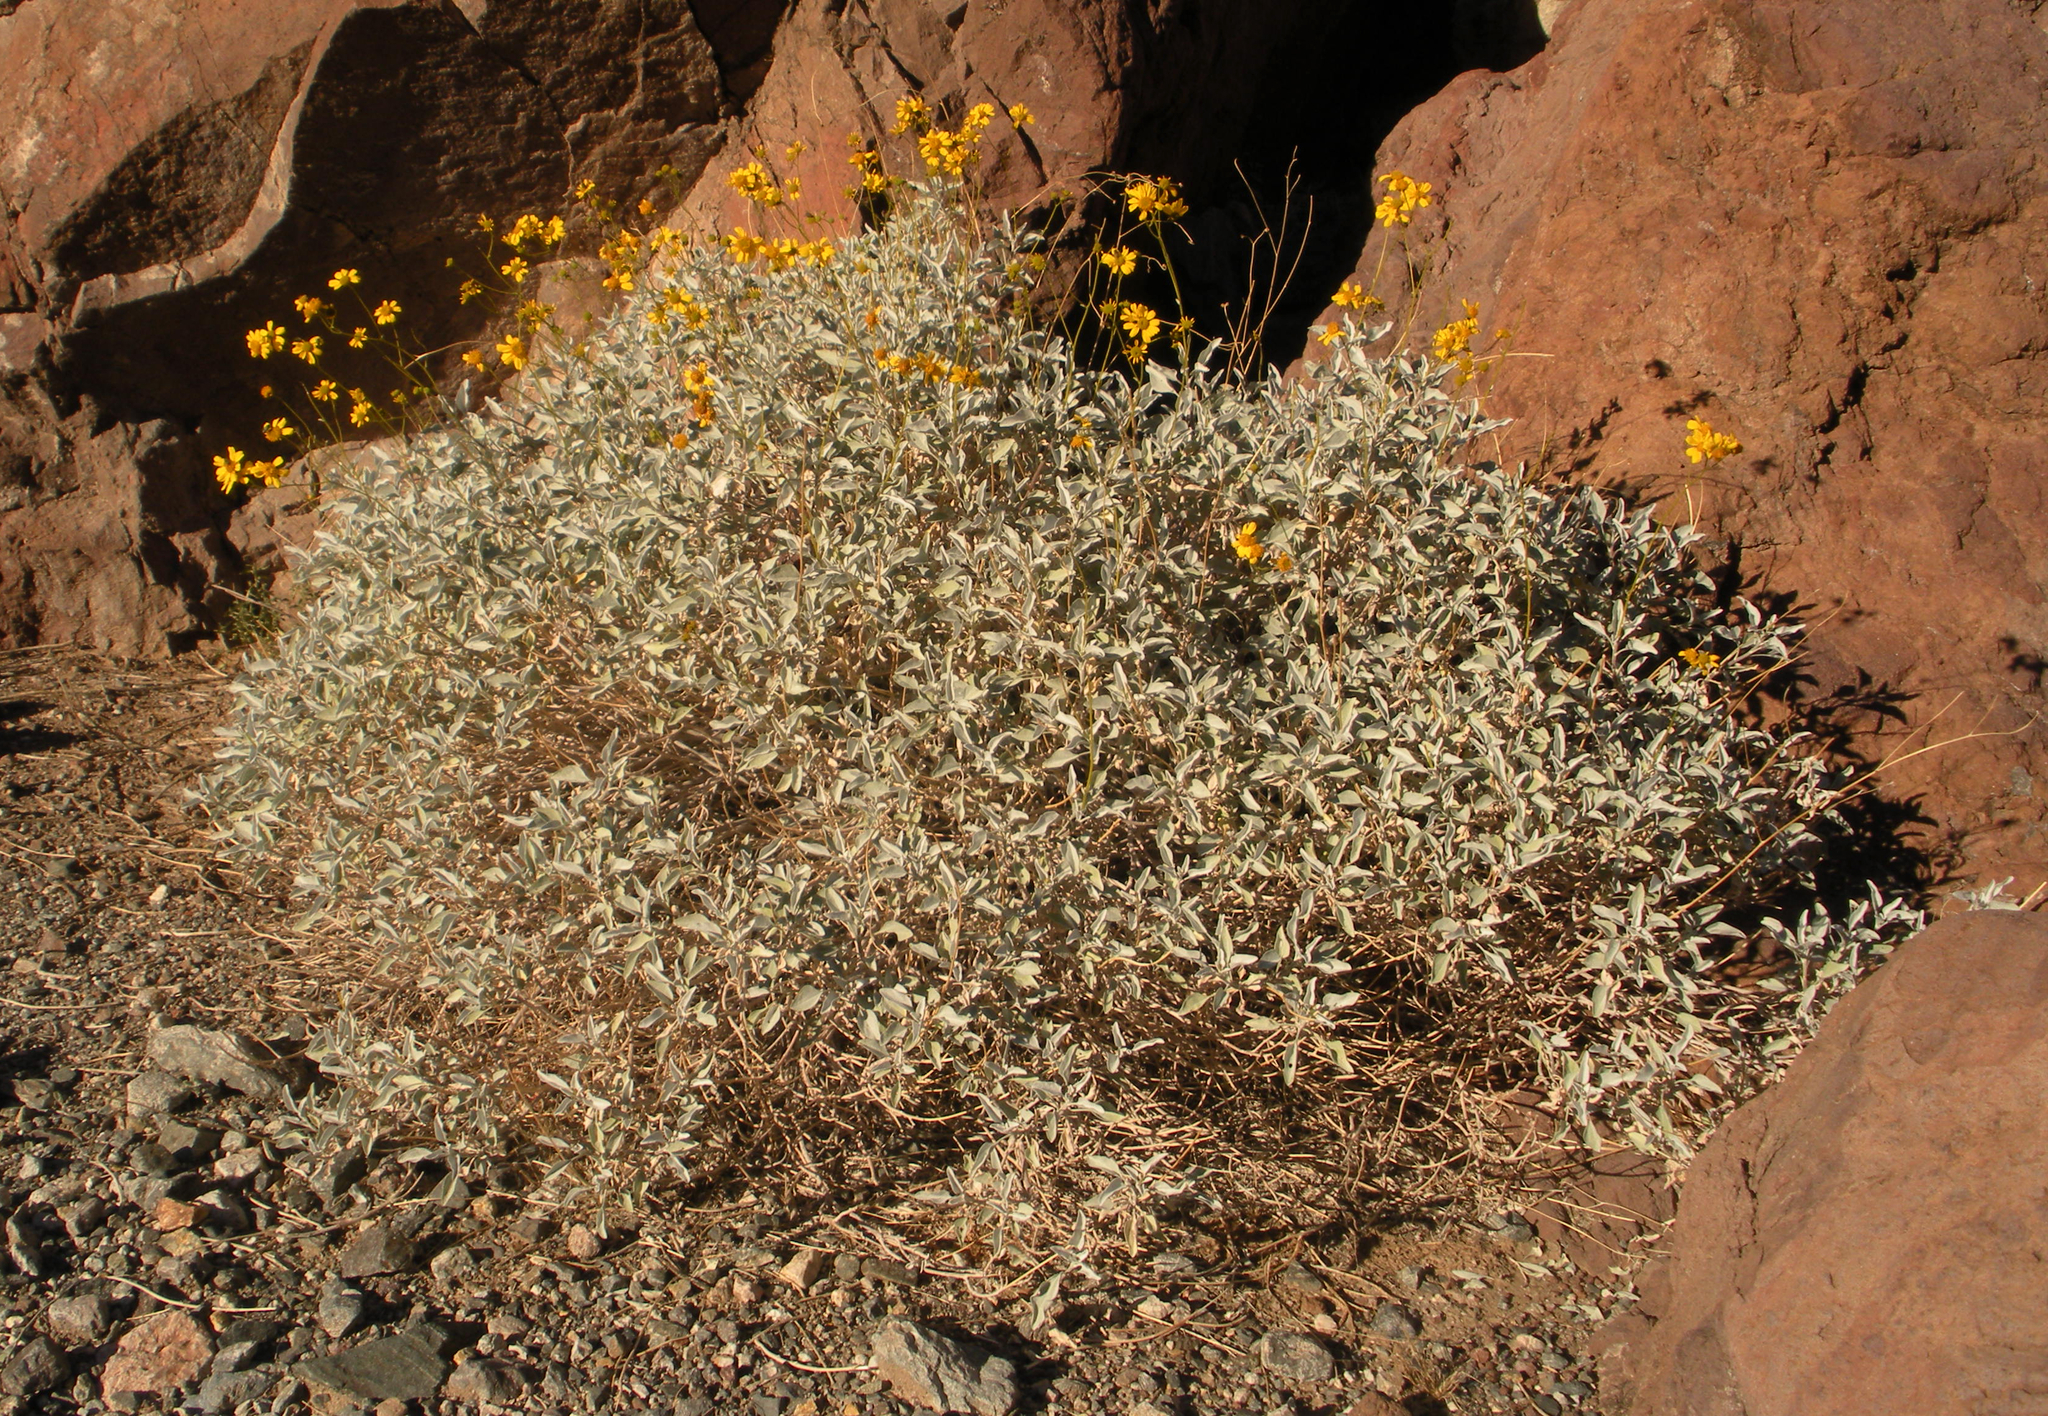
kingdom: Plantae
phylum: Tracheophyta
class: Magnoliopsida
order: Asterales
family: Asteraceae
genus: Encelia
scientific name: Encelia farinosa
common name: Brittlebush
